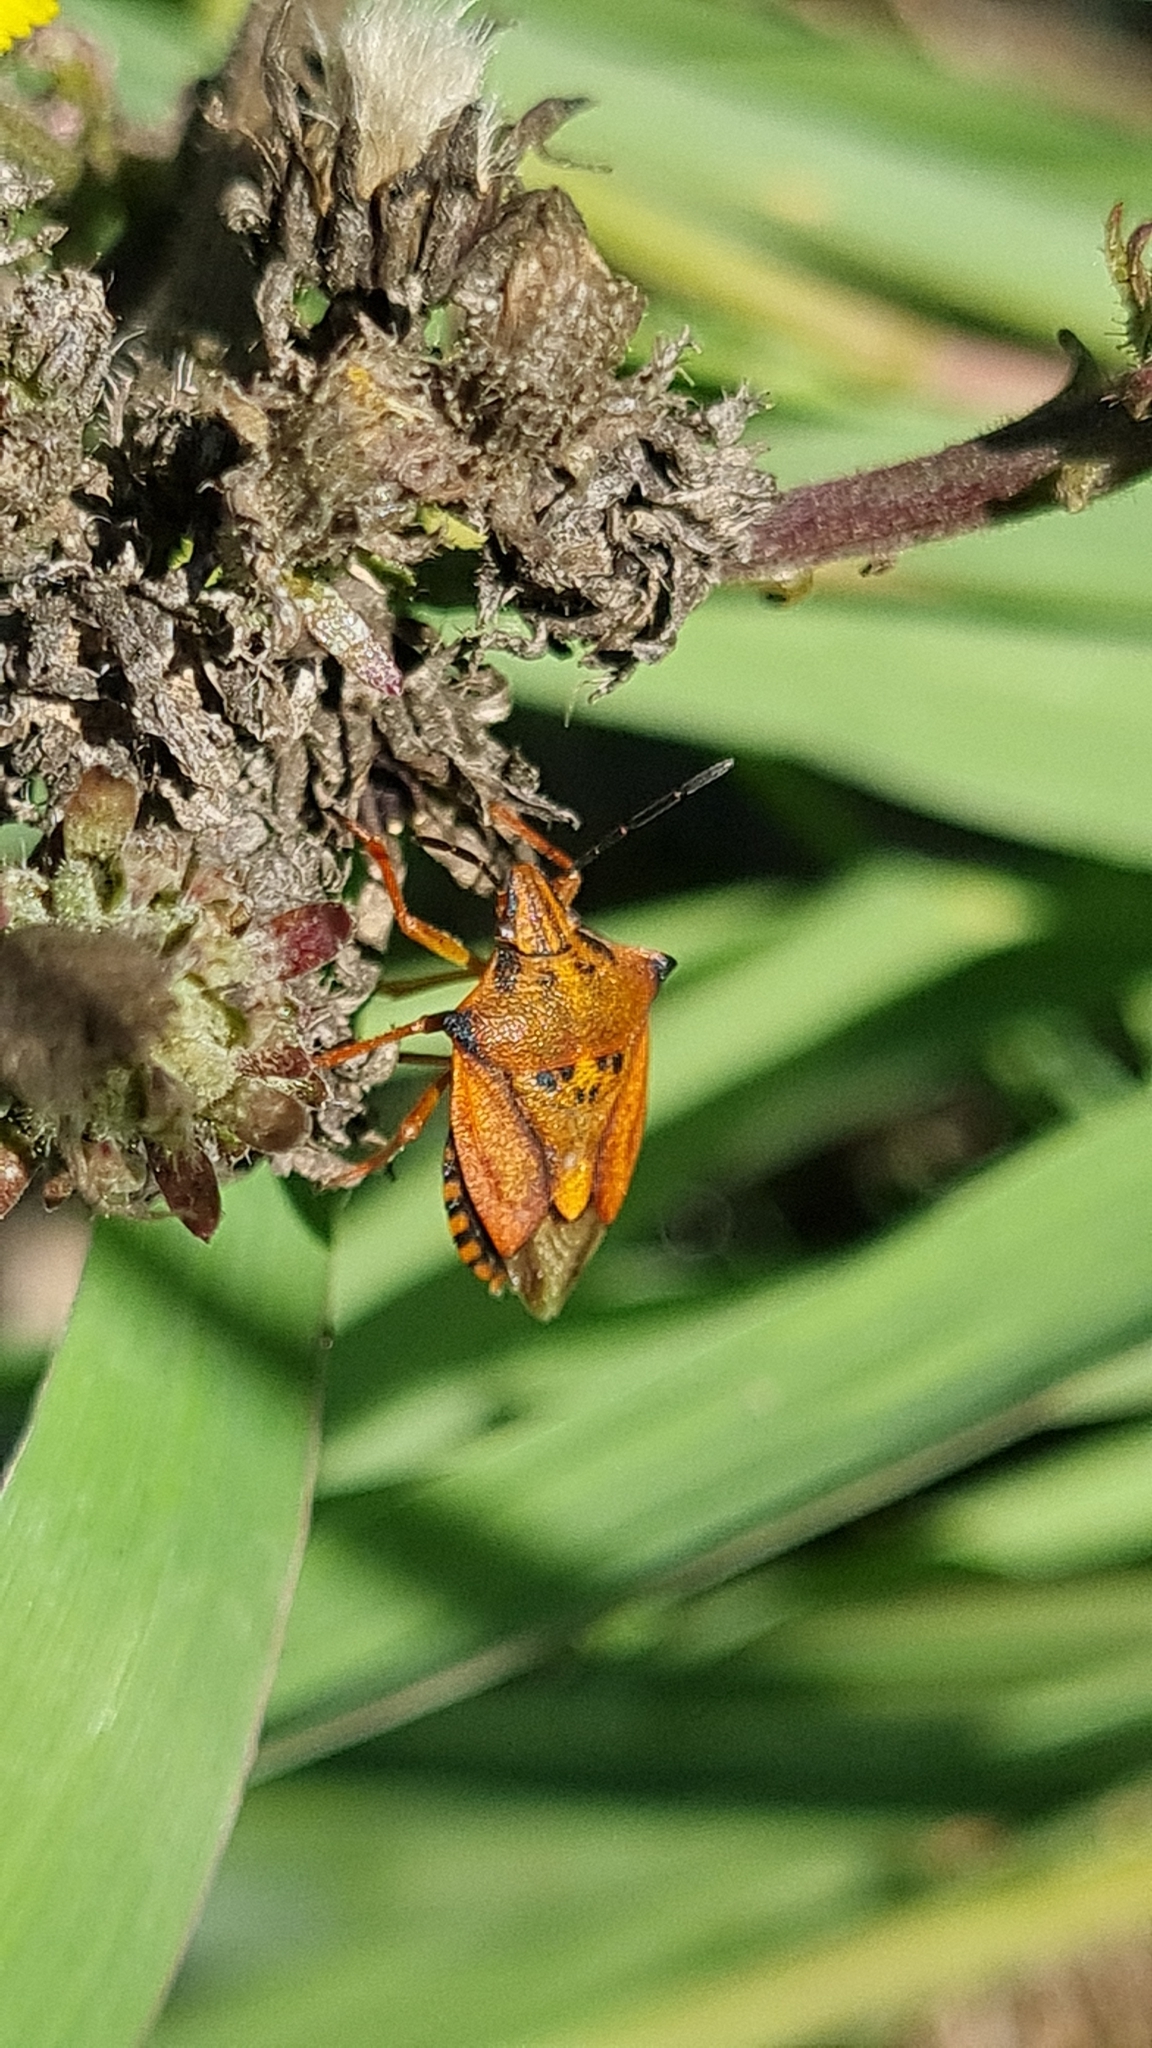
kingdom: Animalia
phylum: Arthropoda
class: Insecta
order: Hemiptera
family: Pentatomidae
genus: Carpocoris
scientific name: Carpocoris mediterraneus
